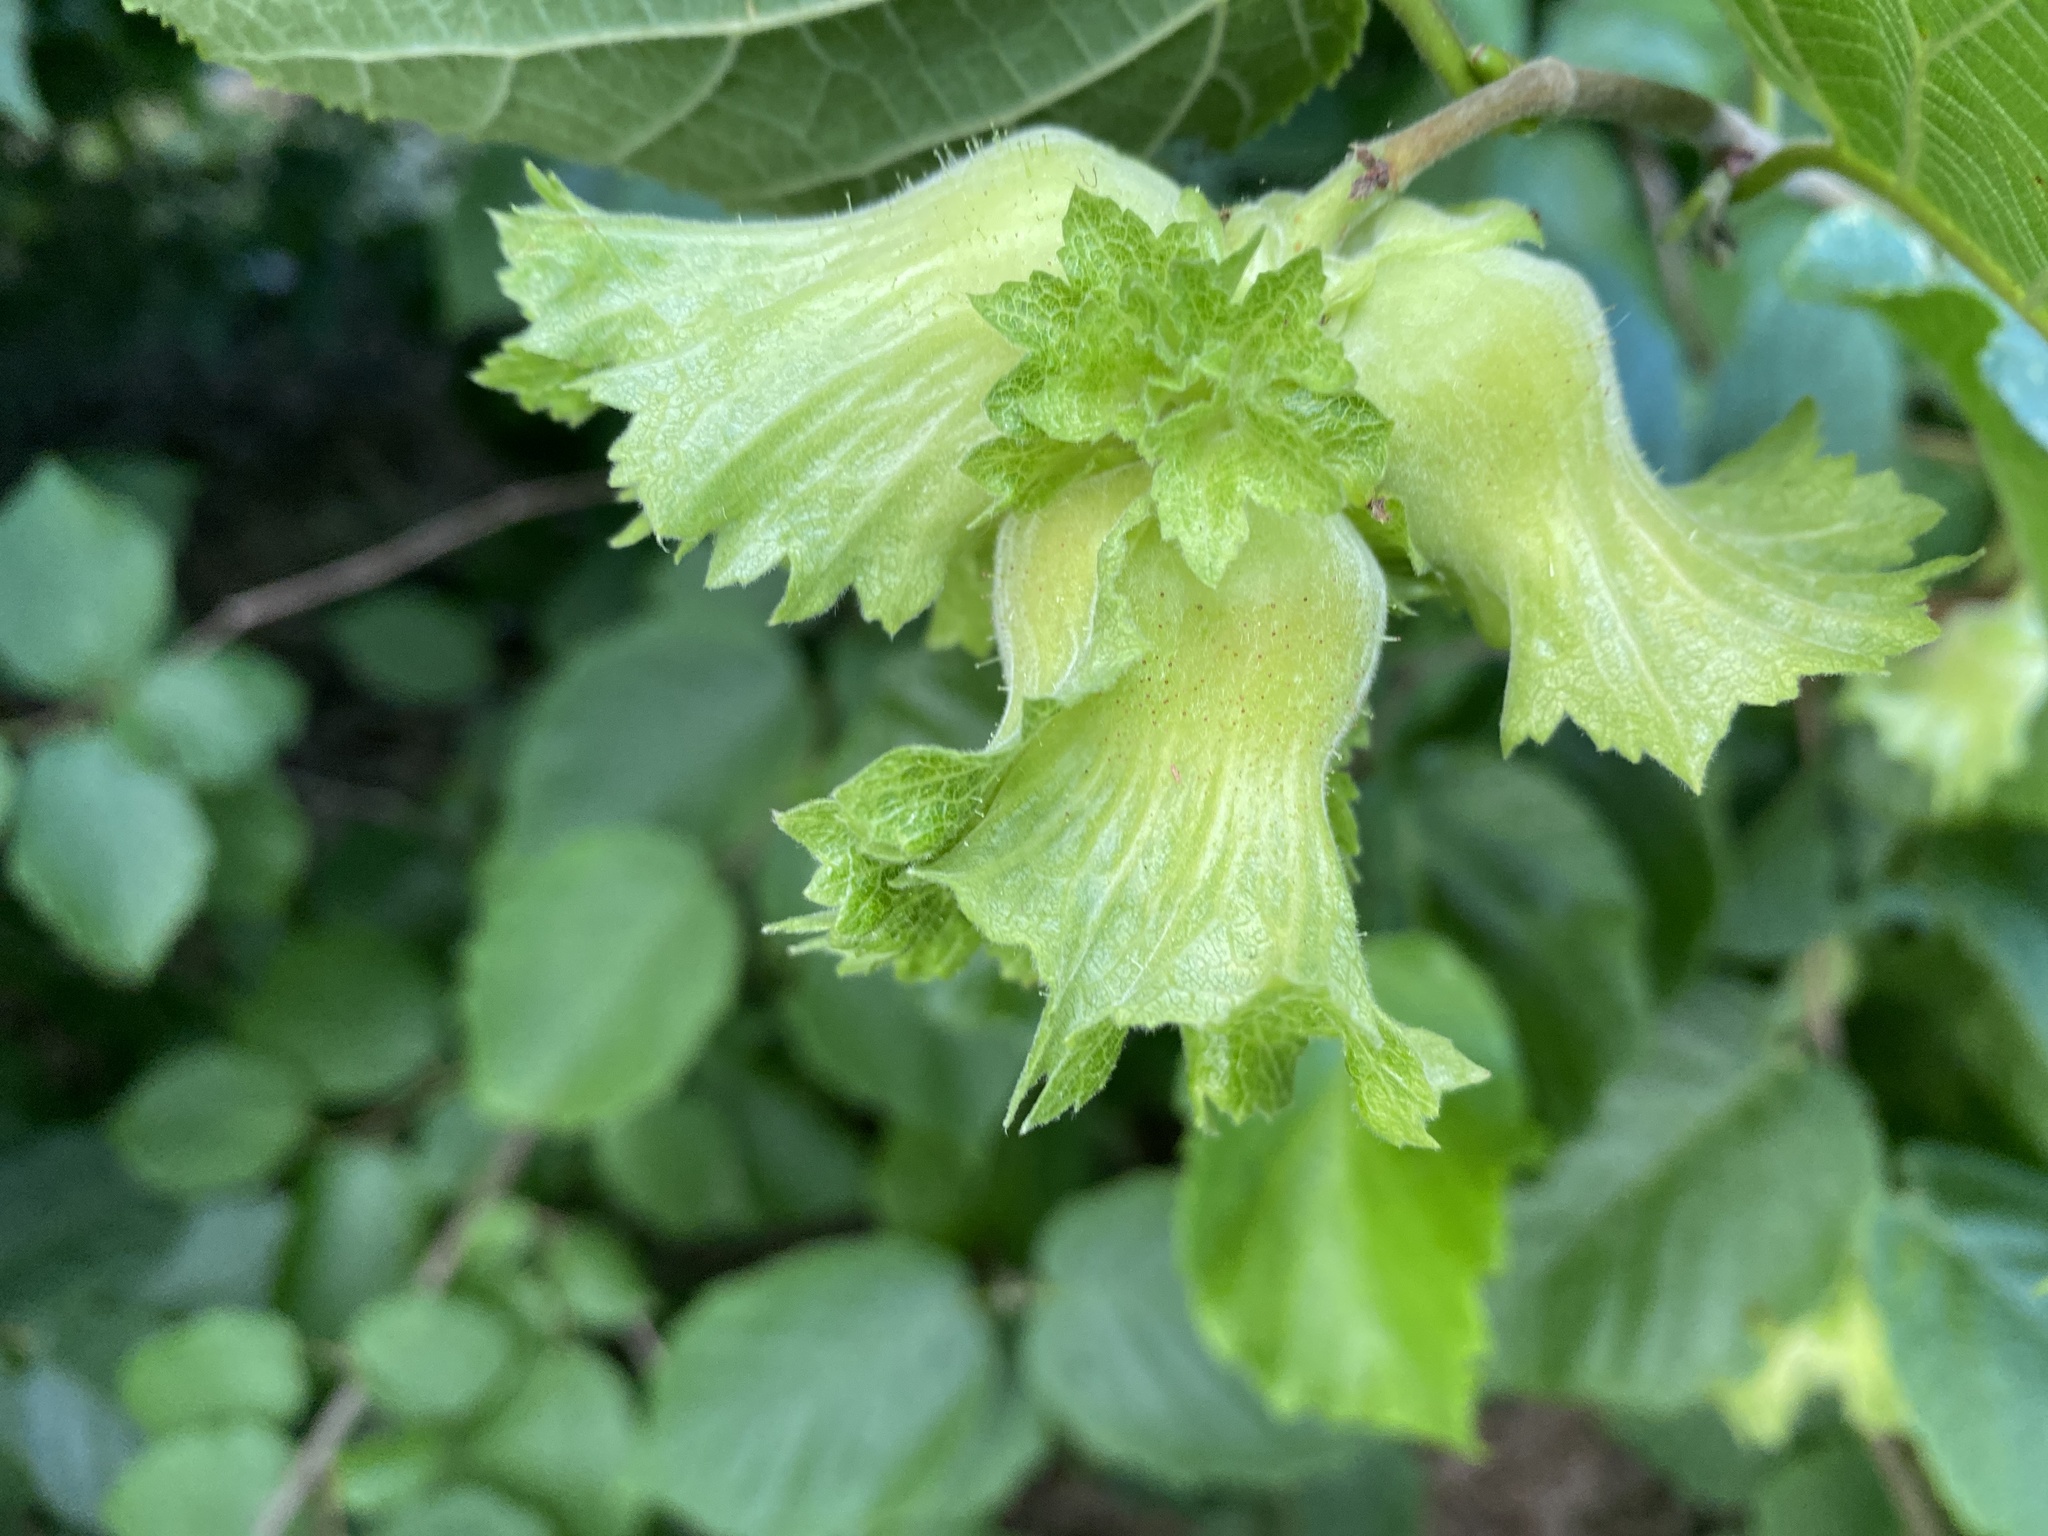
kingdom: Plantae
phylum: Tracheophyta
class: Magnoliopsida
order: Fagales
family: Betulaceae
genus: Corylus
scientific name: Corylus americana
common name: American hazel
